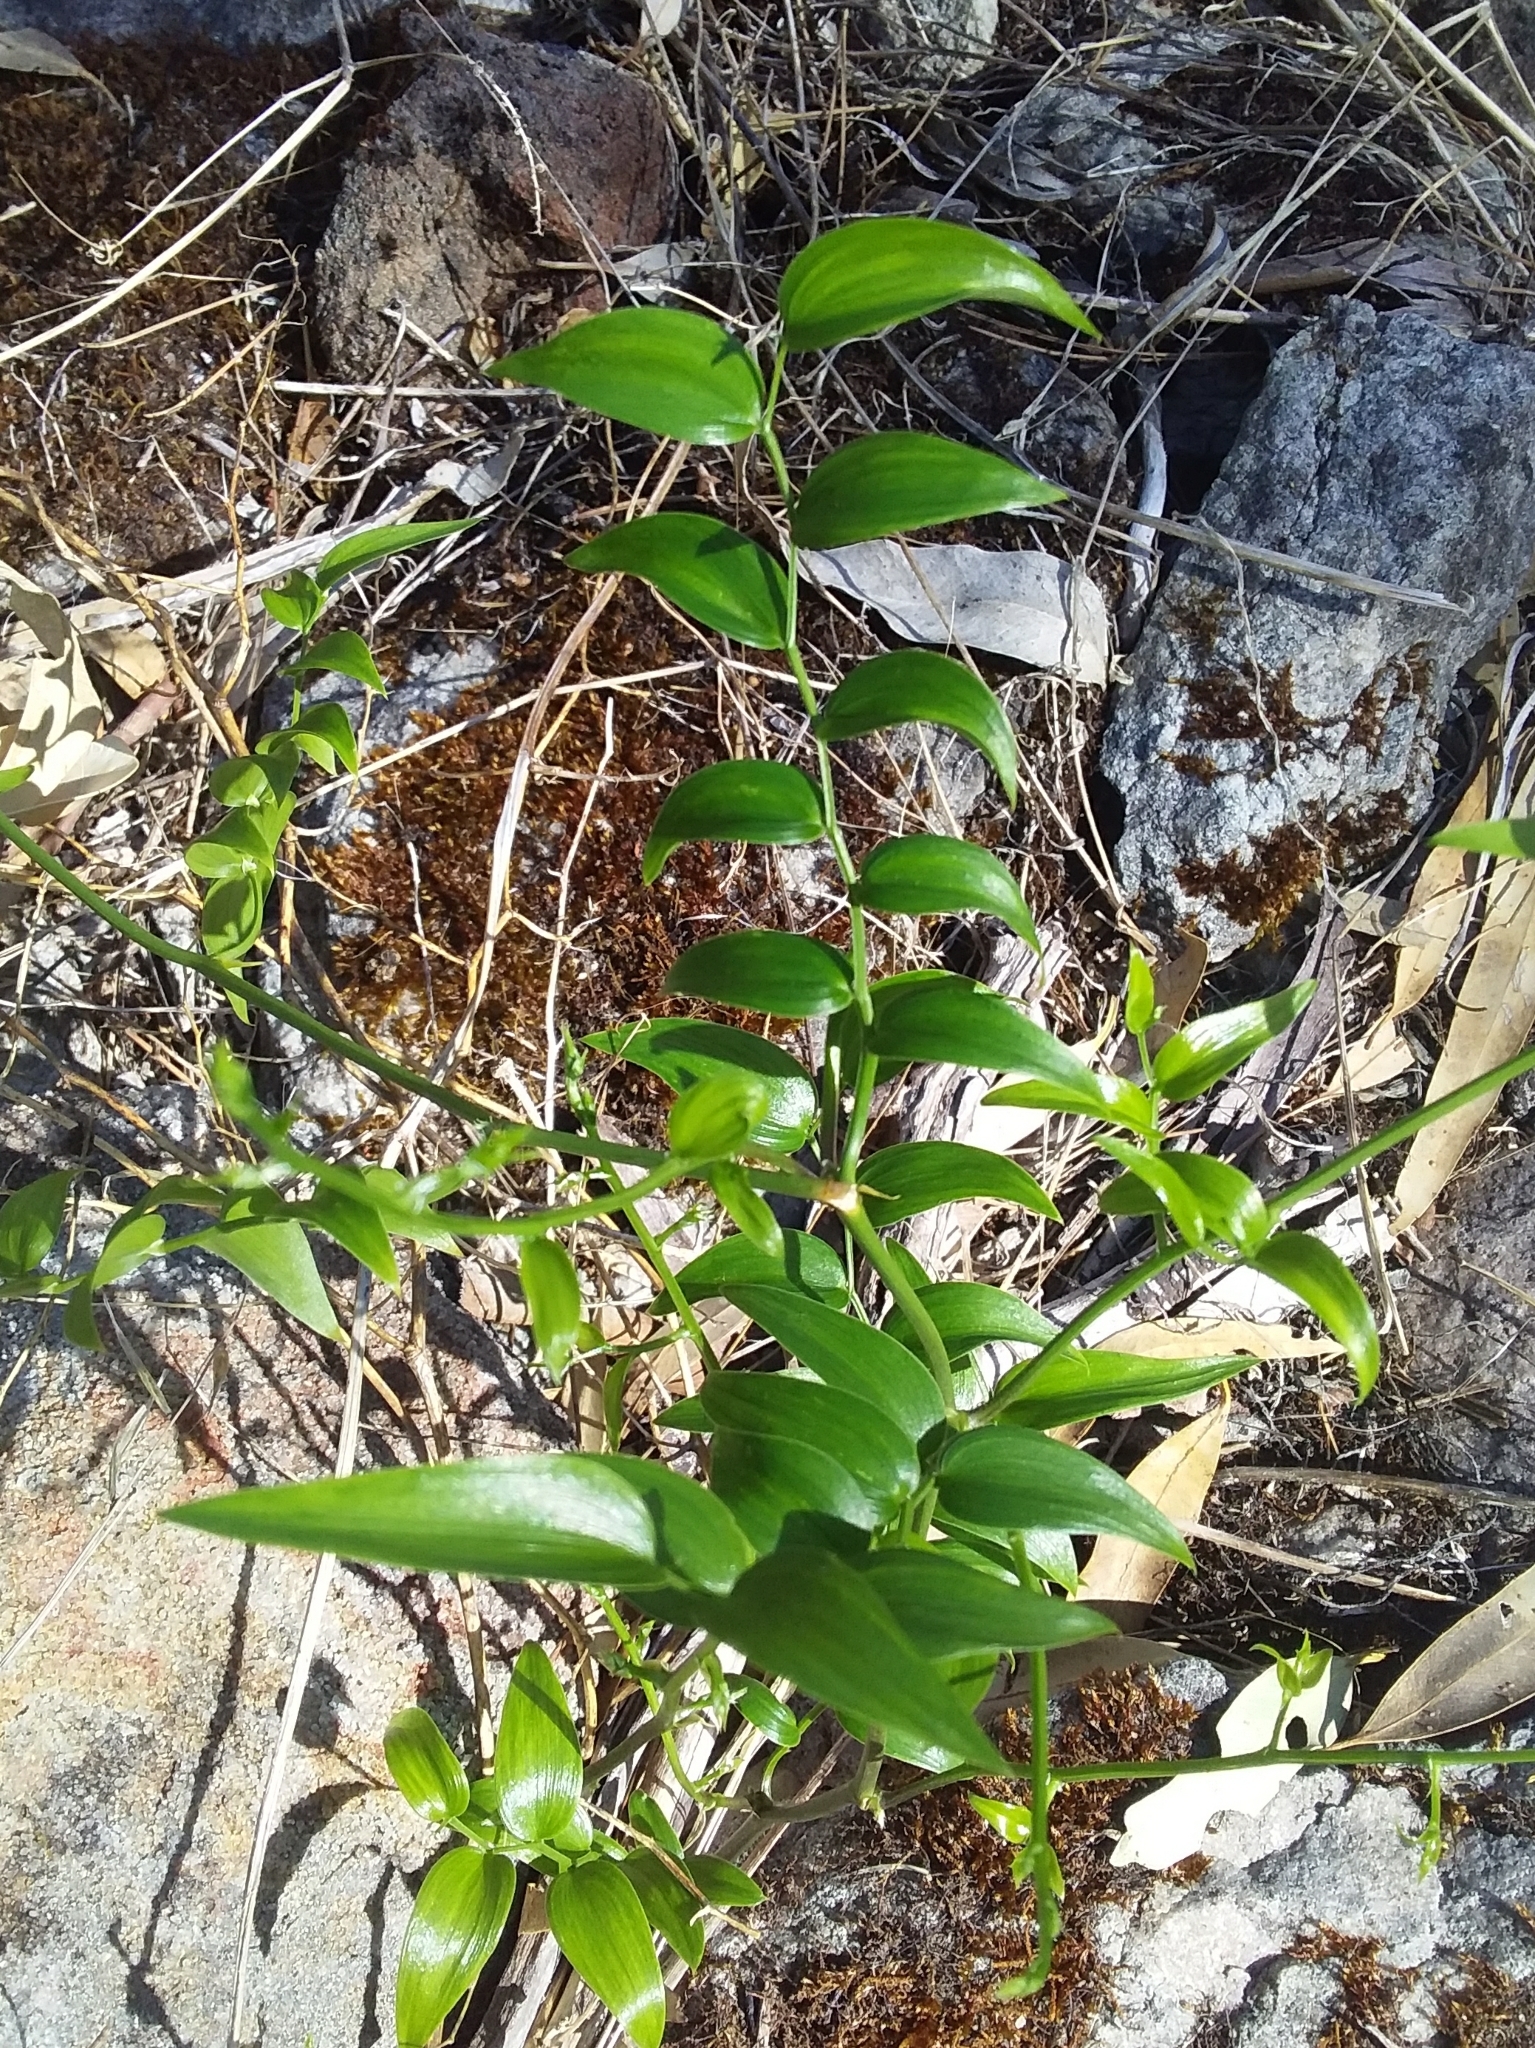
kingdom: Plantae
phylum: Tracheophyta
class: Liliopsida
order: Asparagales
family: Asparagaceae
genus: Asparagus
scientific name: Asparagus asparagoides
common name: African asparagus fern
